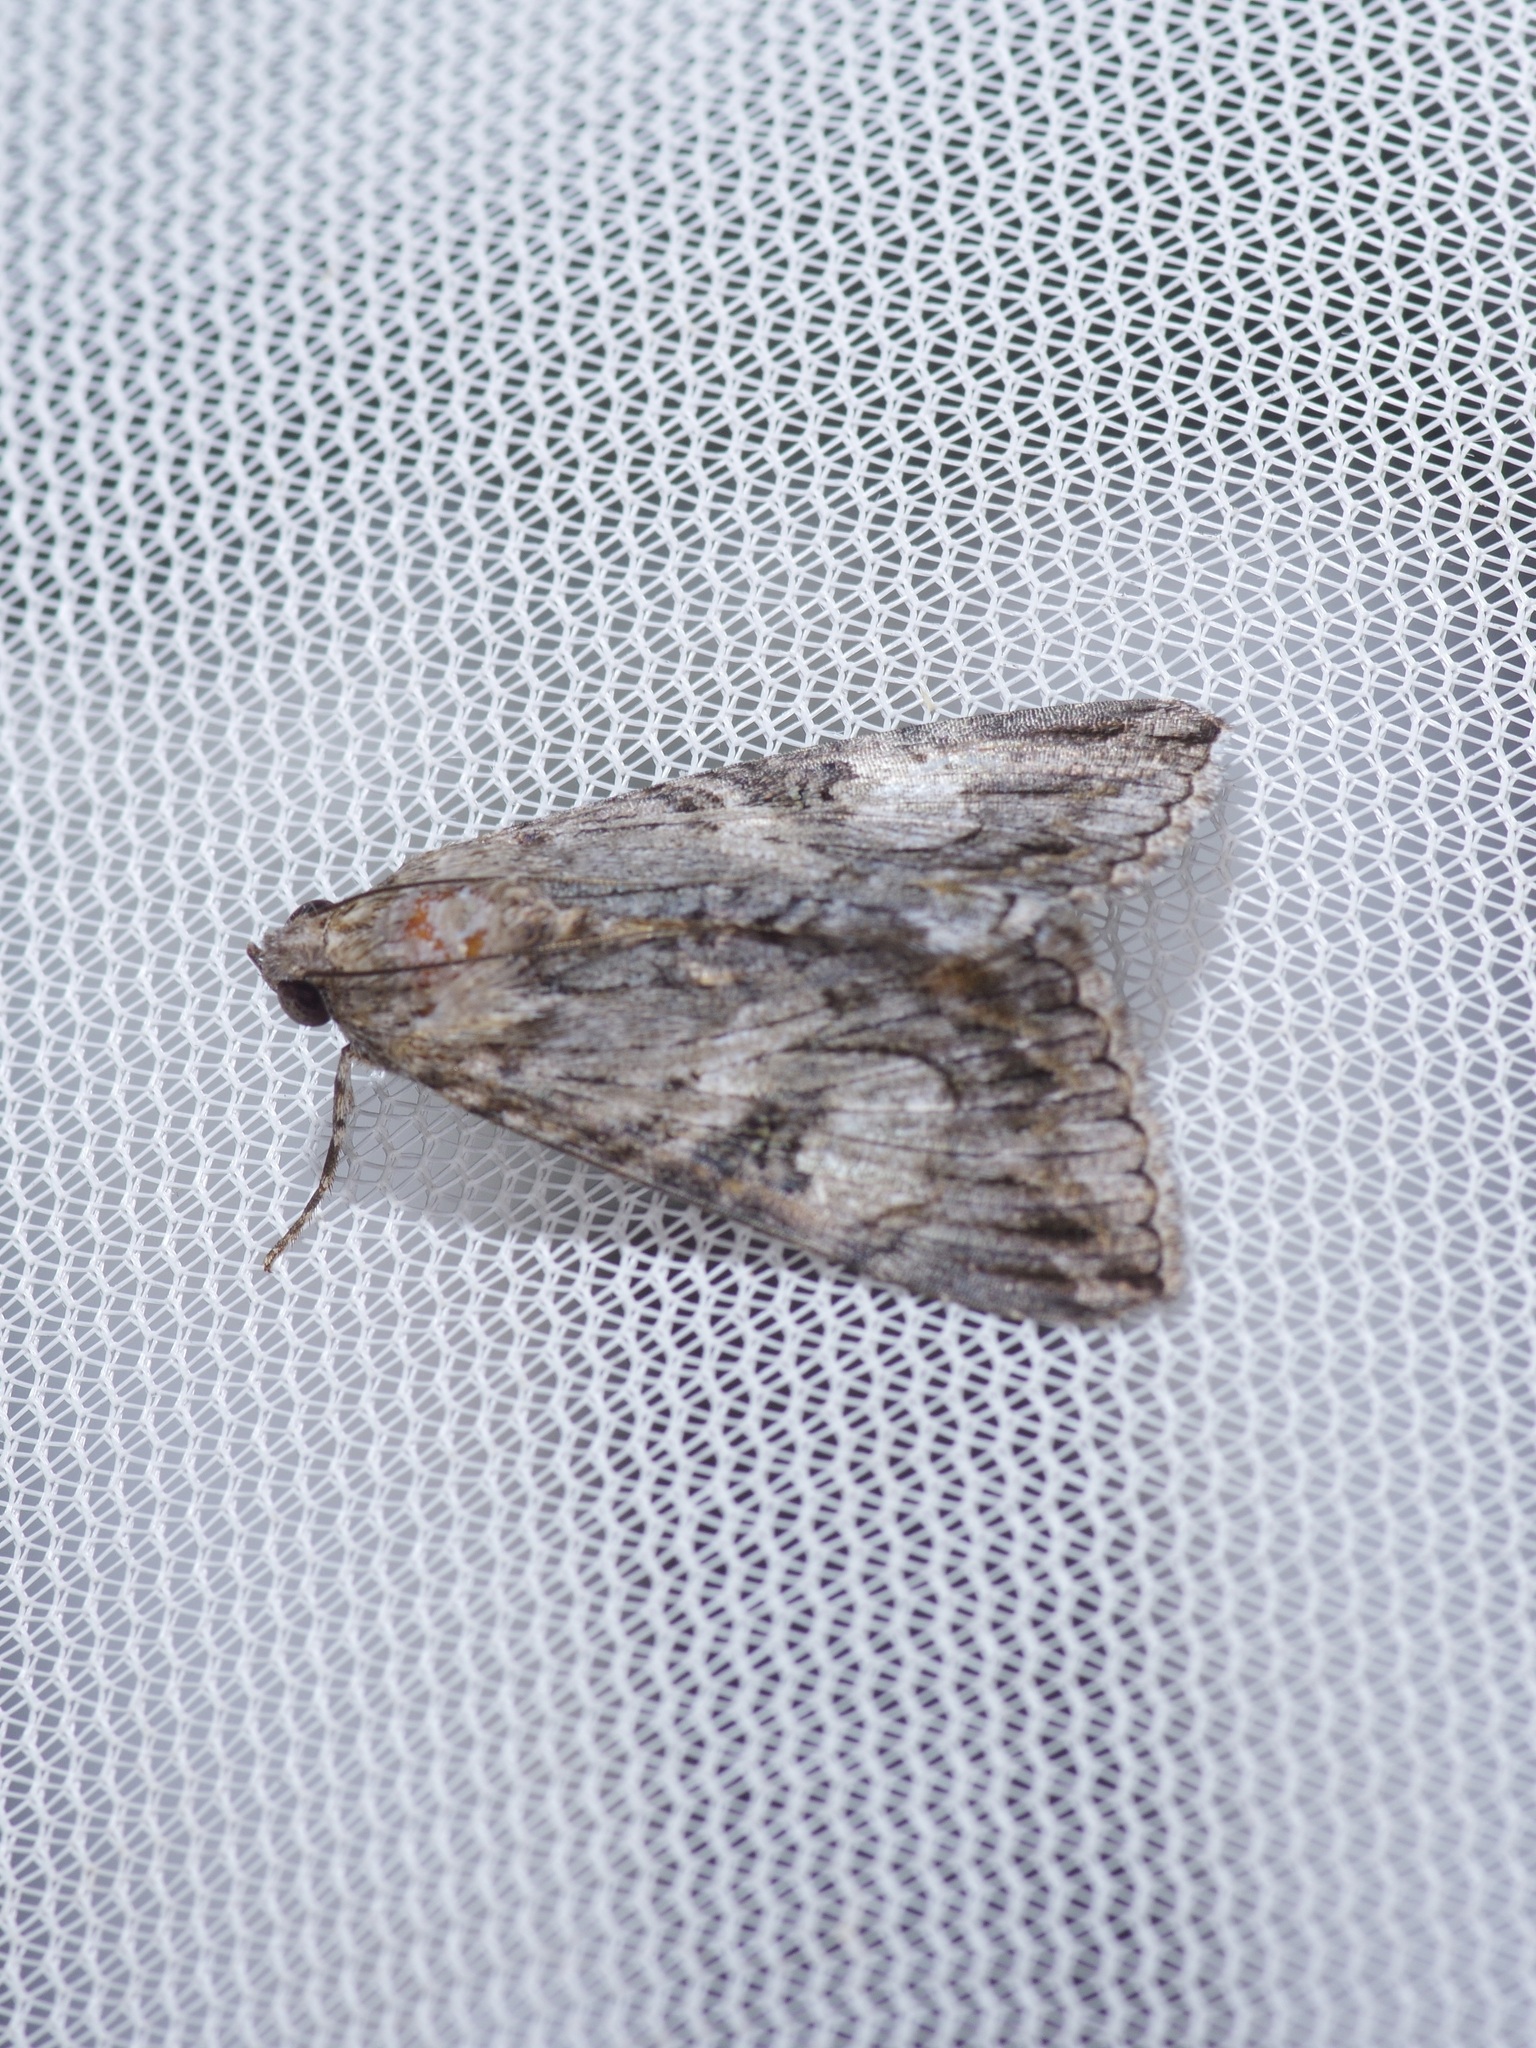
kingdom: Animalia
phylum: Arthropoda
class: Insecta
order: Lepidoptera
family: Erebidae
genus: Melipotis
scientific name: Melipotis jucunda
